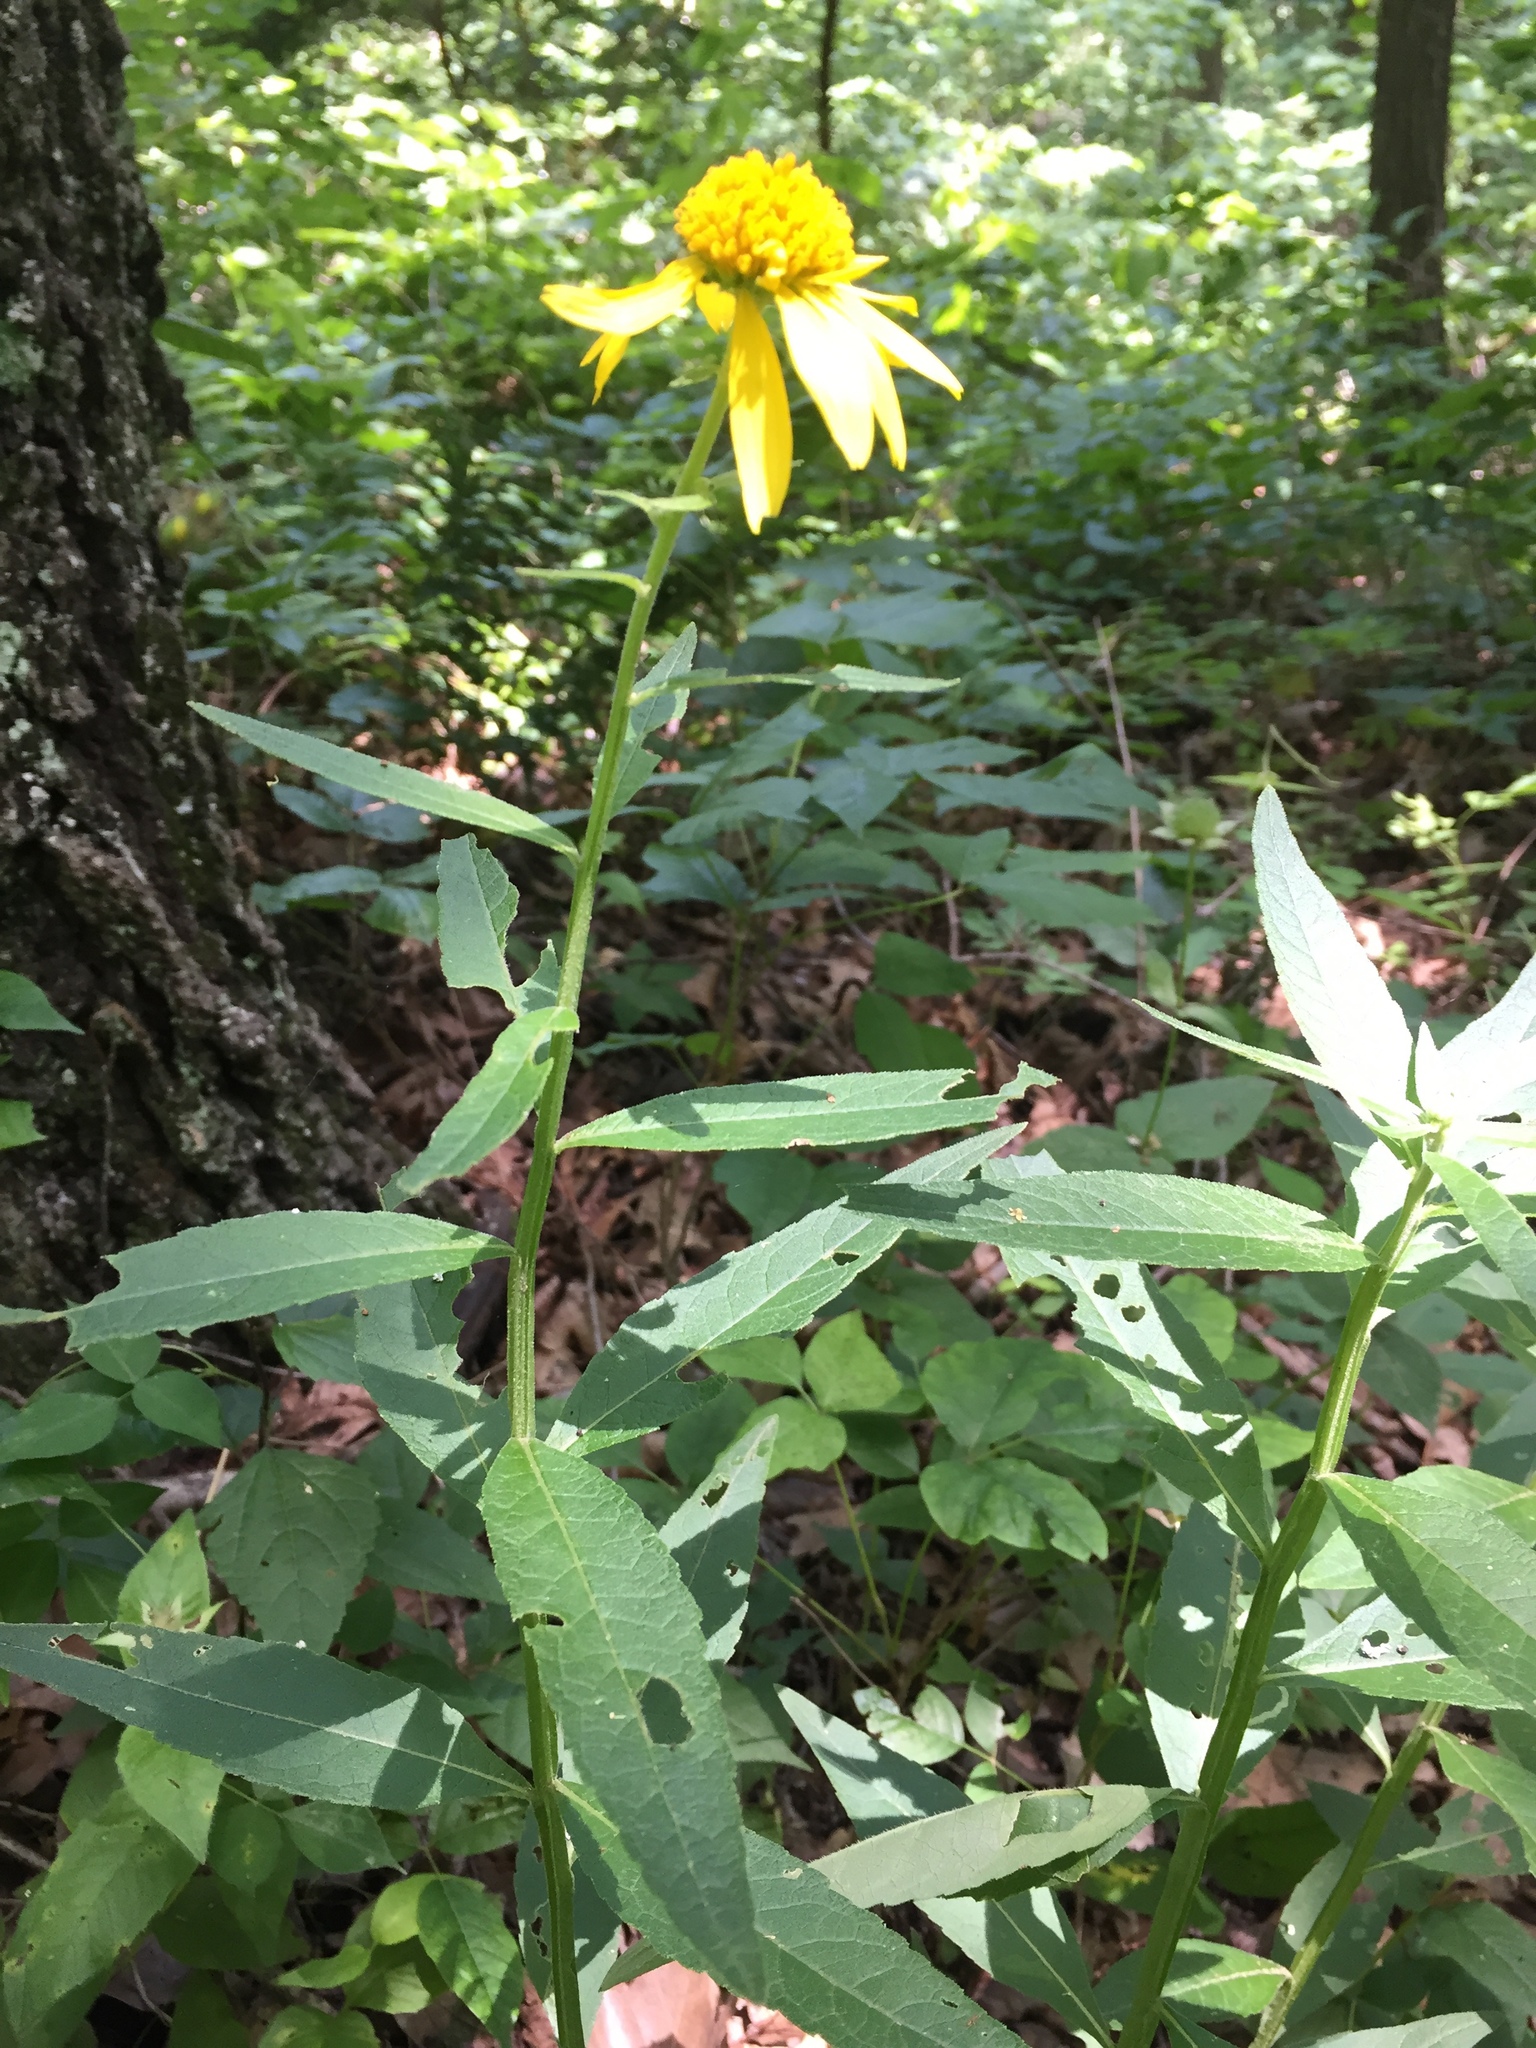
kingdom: Plantae
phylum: Tracheophyta
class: Magnoliopsida
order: Asterales
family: Asteraceae
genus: Verbesina
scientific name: Verbesina helianthoides
